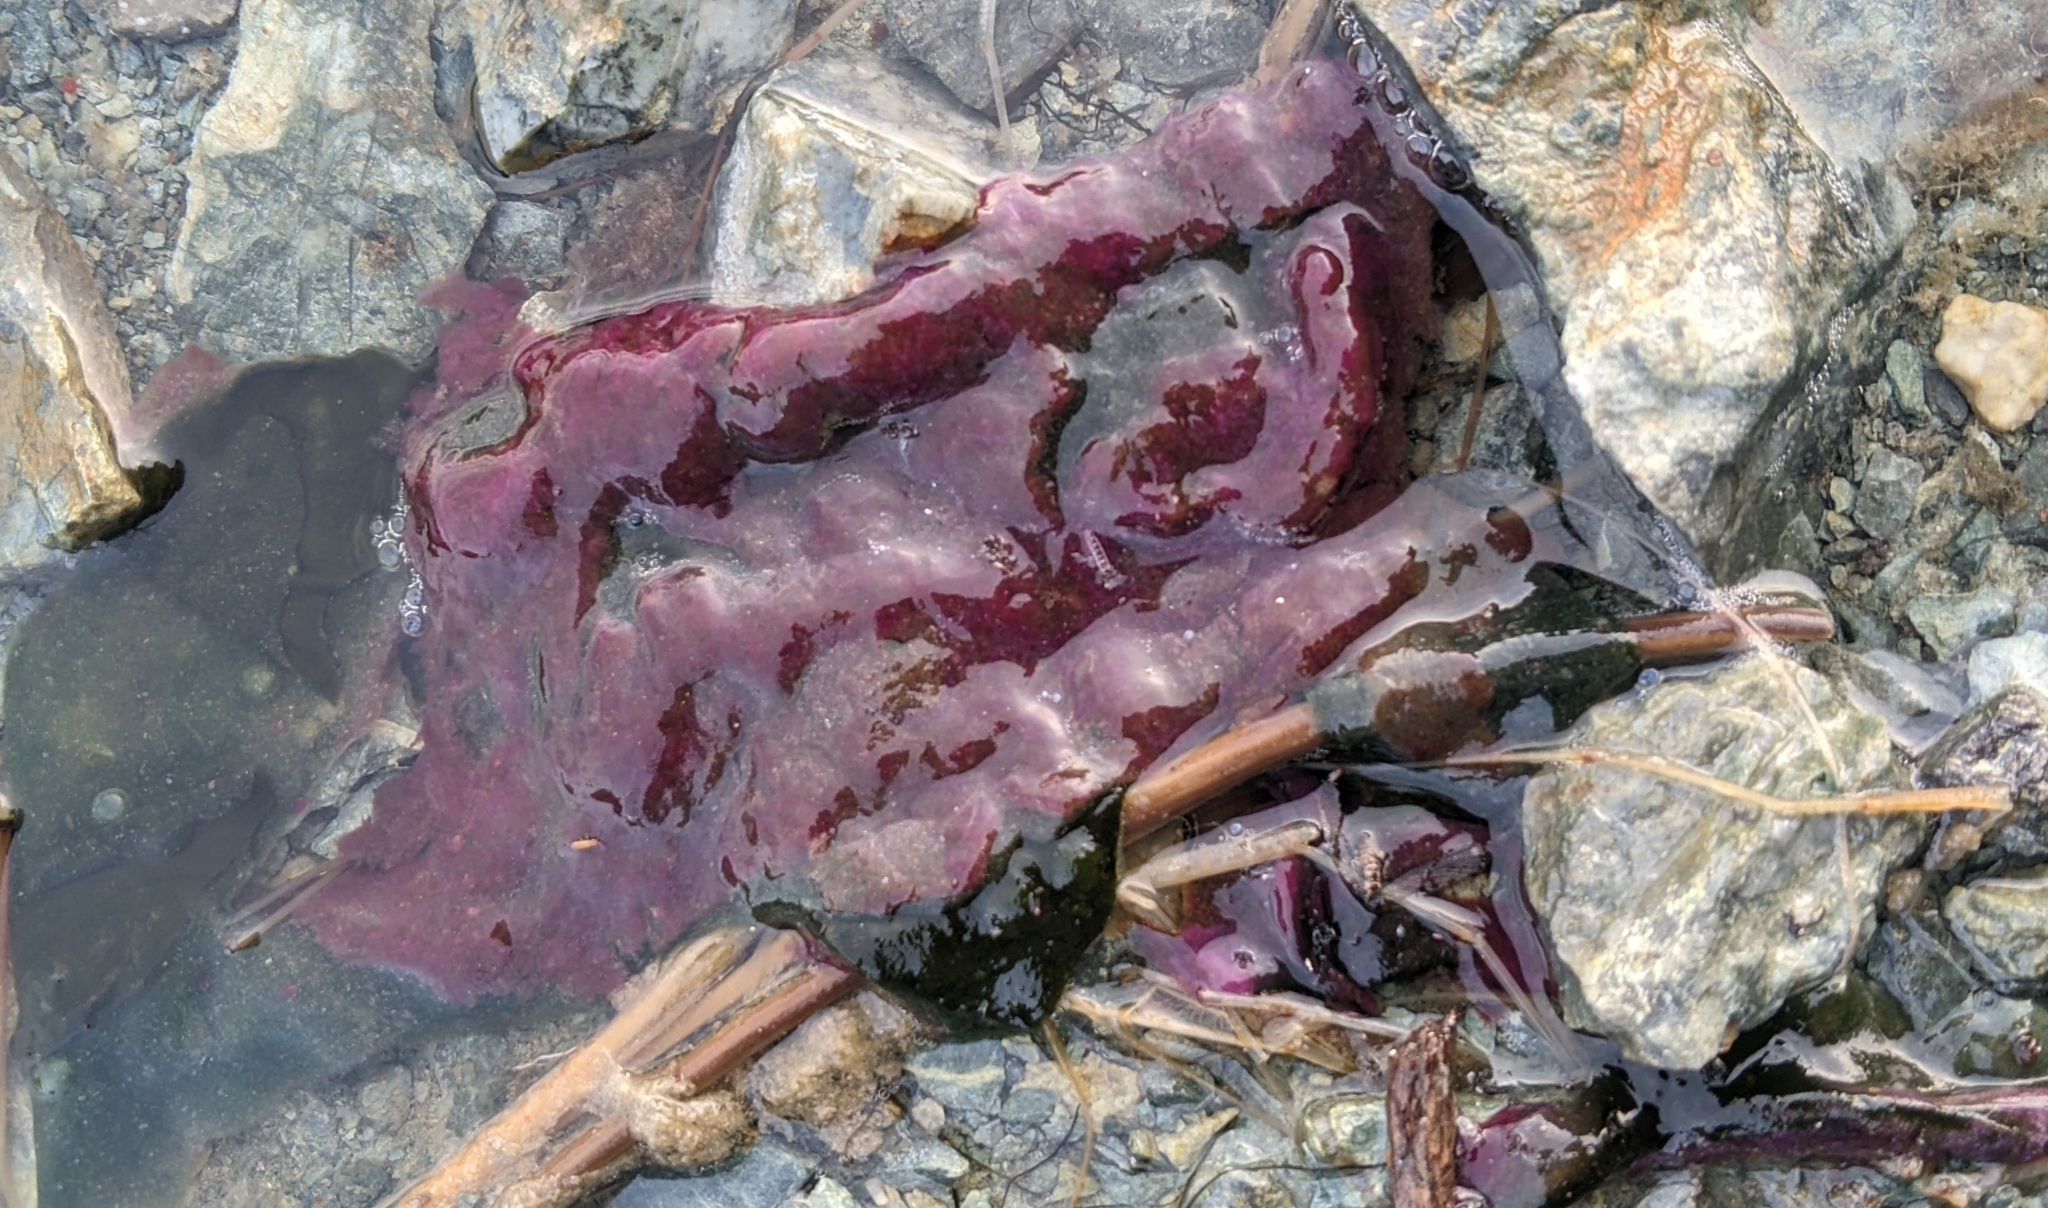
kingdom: Bacteria
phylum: Proteobacteria
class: Gammaproteobacteria
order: Chromatiales
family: Chromatiaceae
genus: Lamprocystis
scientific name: Lamprocystis purpurea
